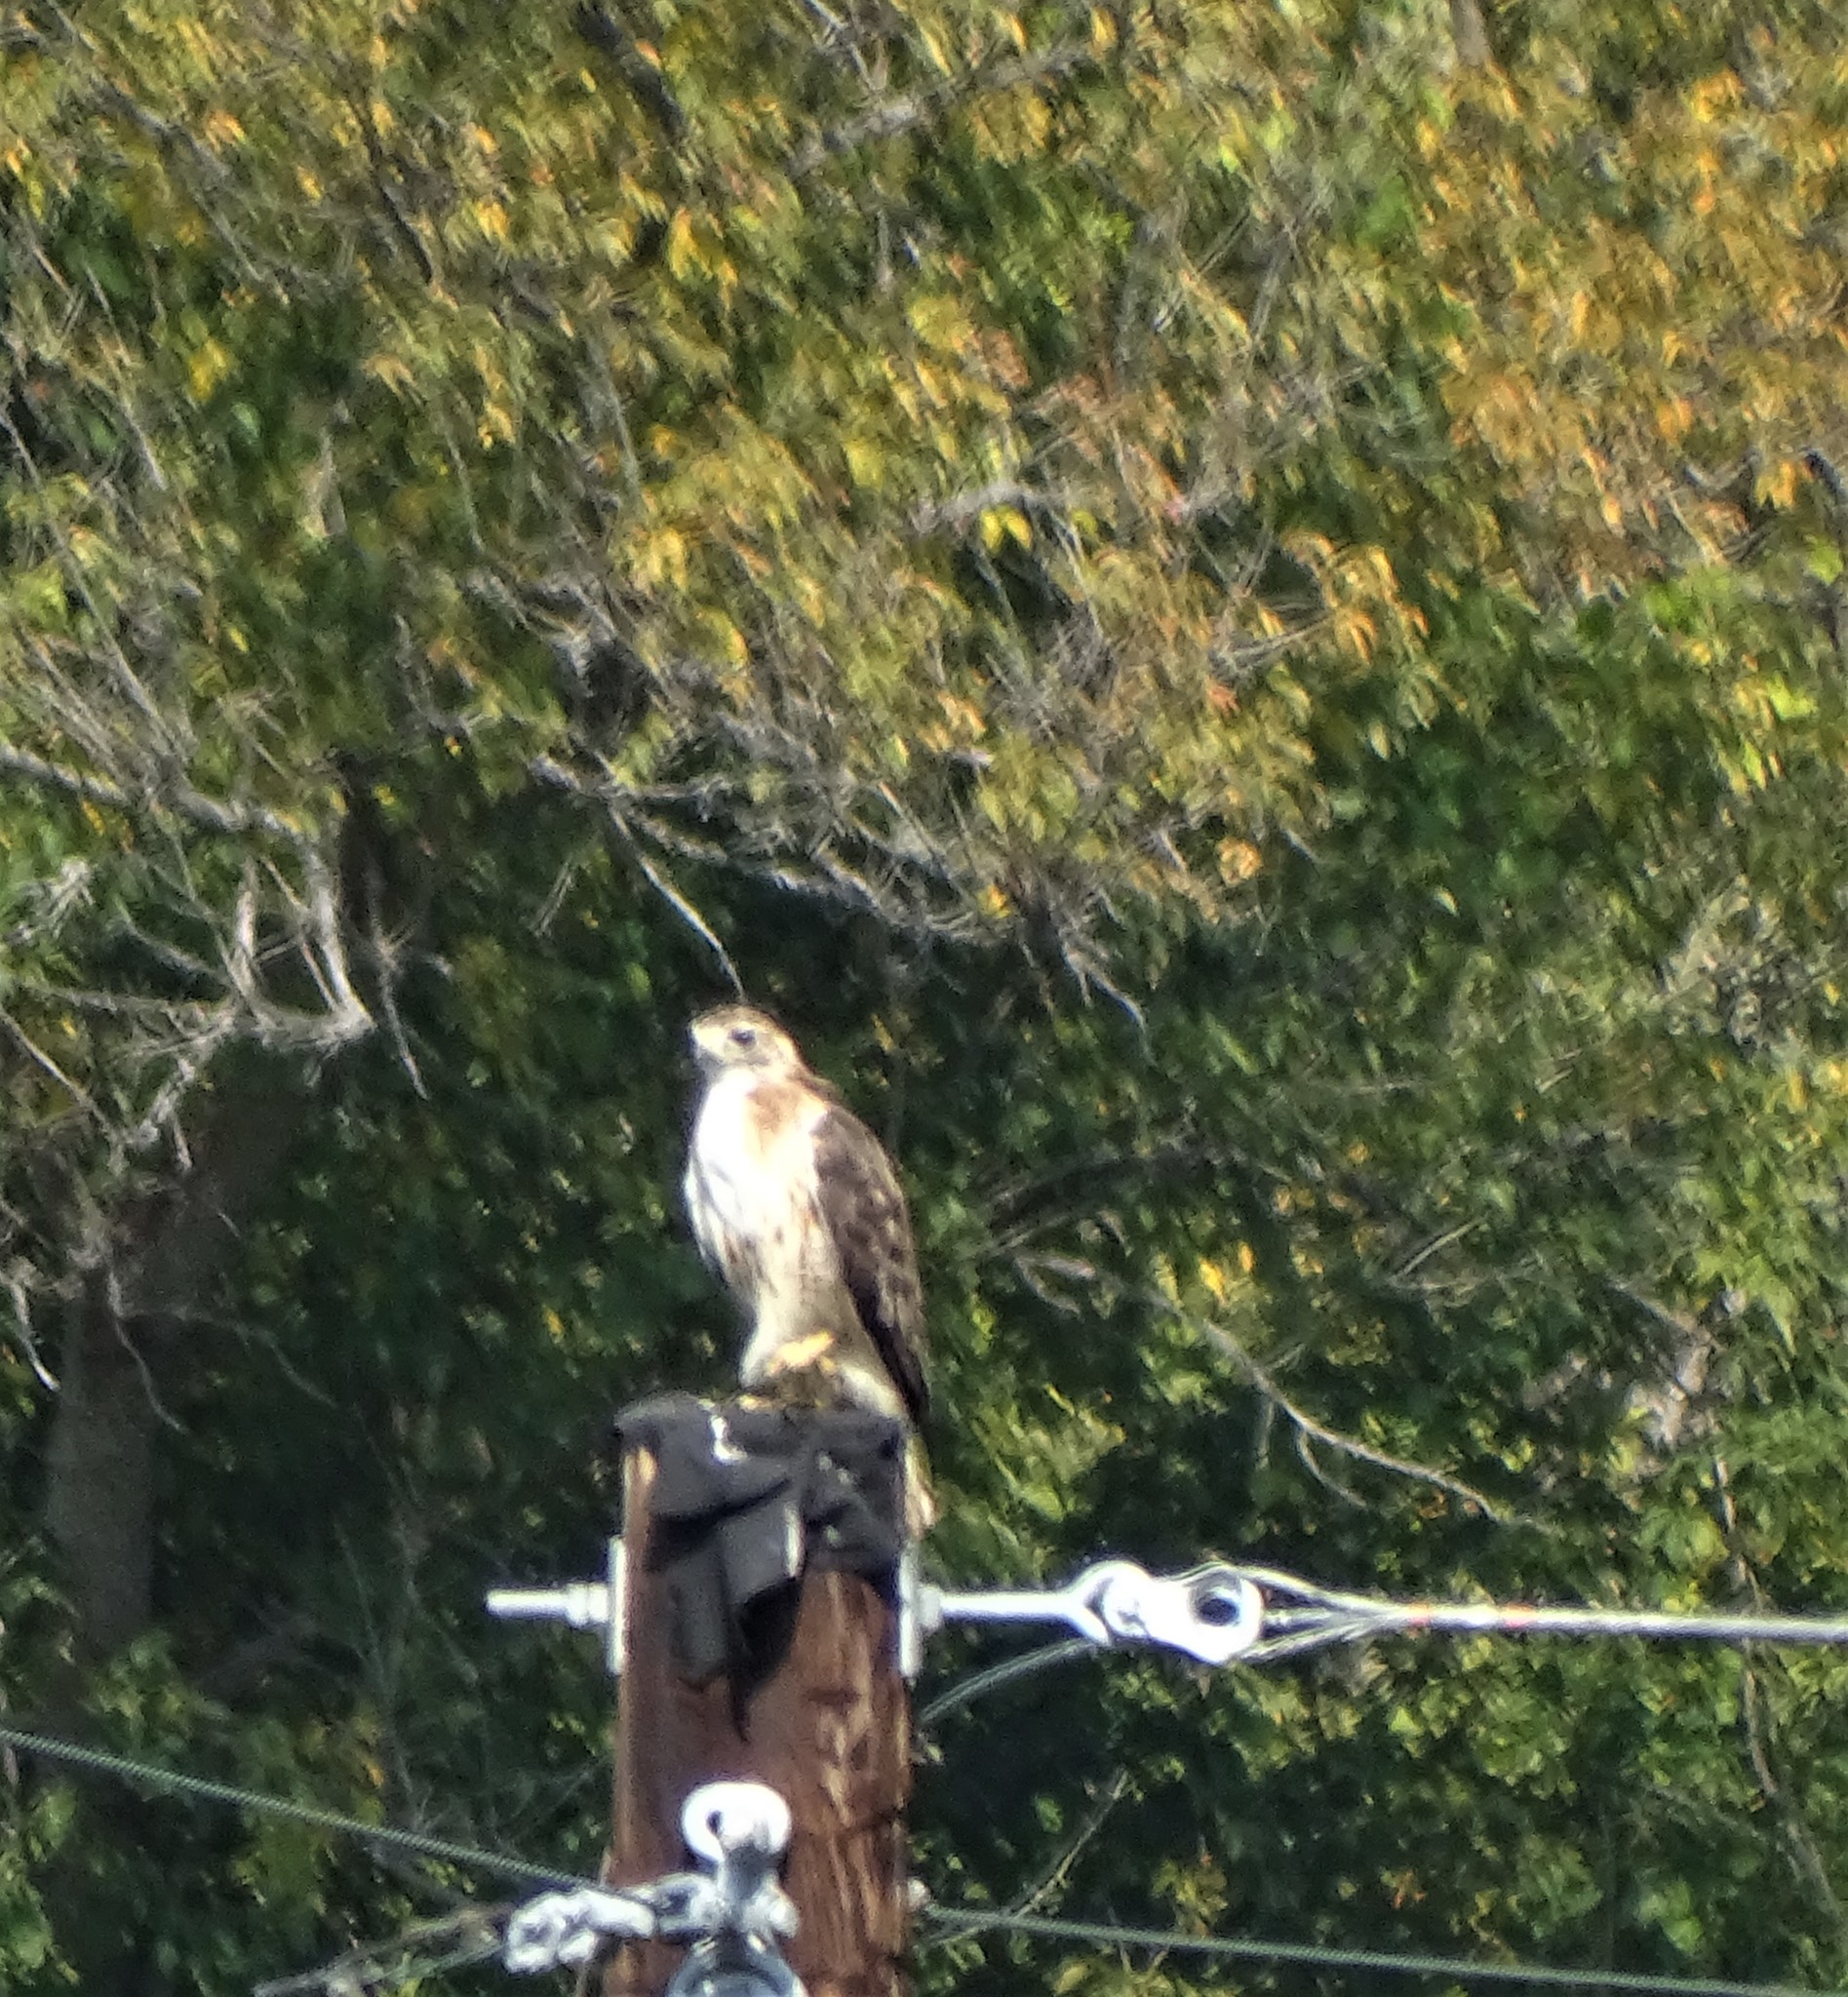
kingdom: Animalia
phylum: Chordata
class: Aves
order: Accipitriformes
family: Accipitridae
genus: Buteo
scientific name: Buteo jamaicensis
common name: Red-tailed hawk
